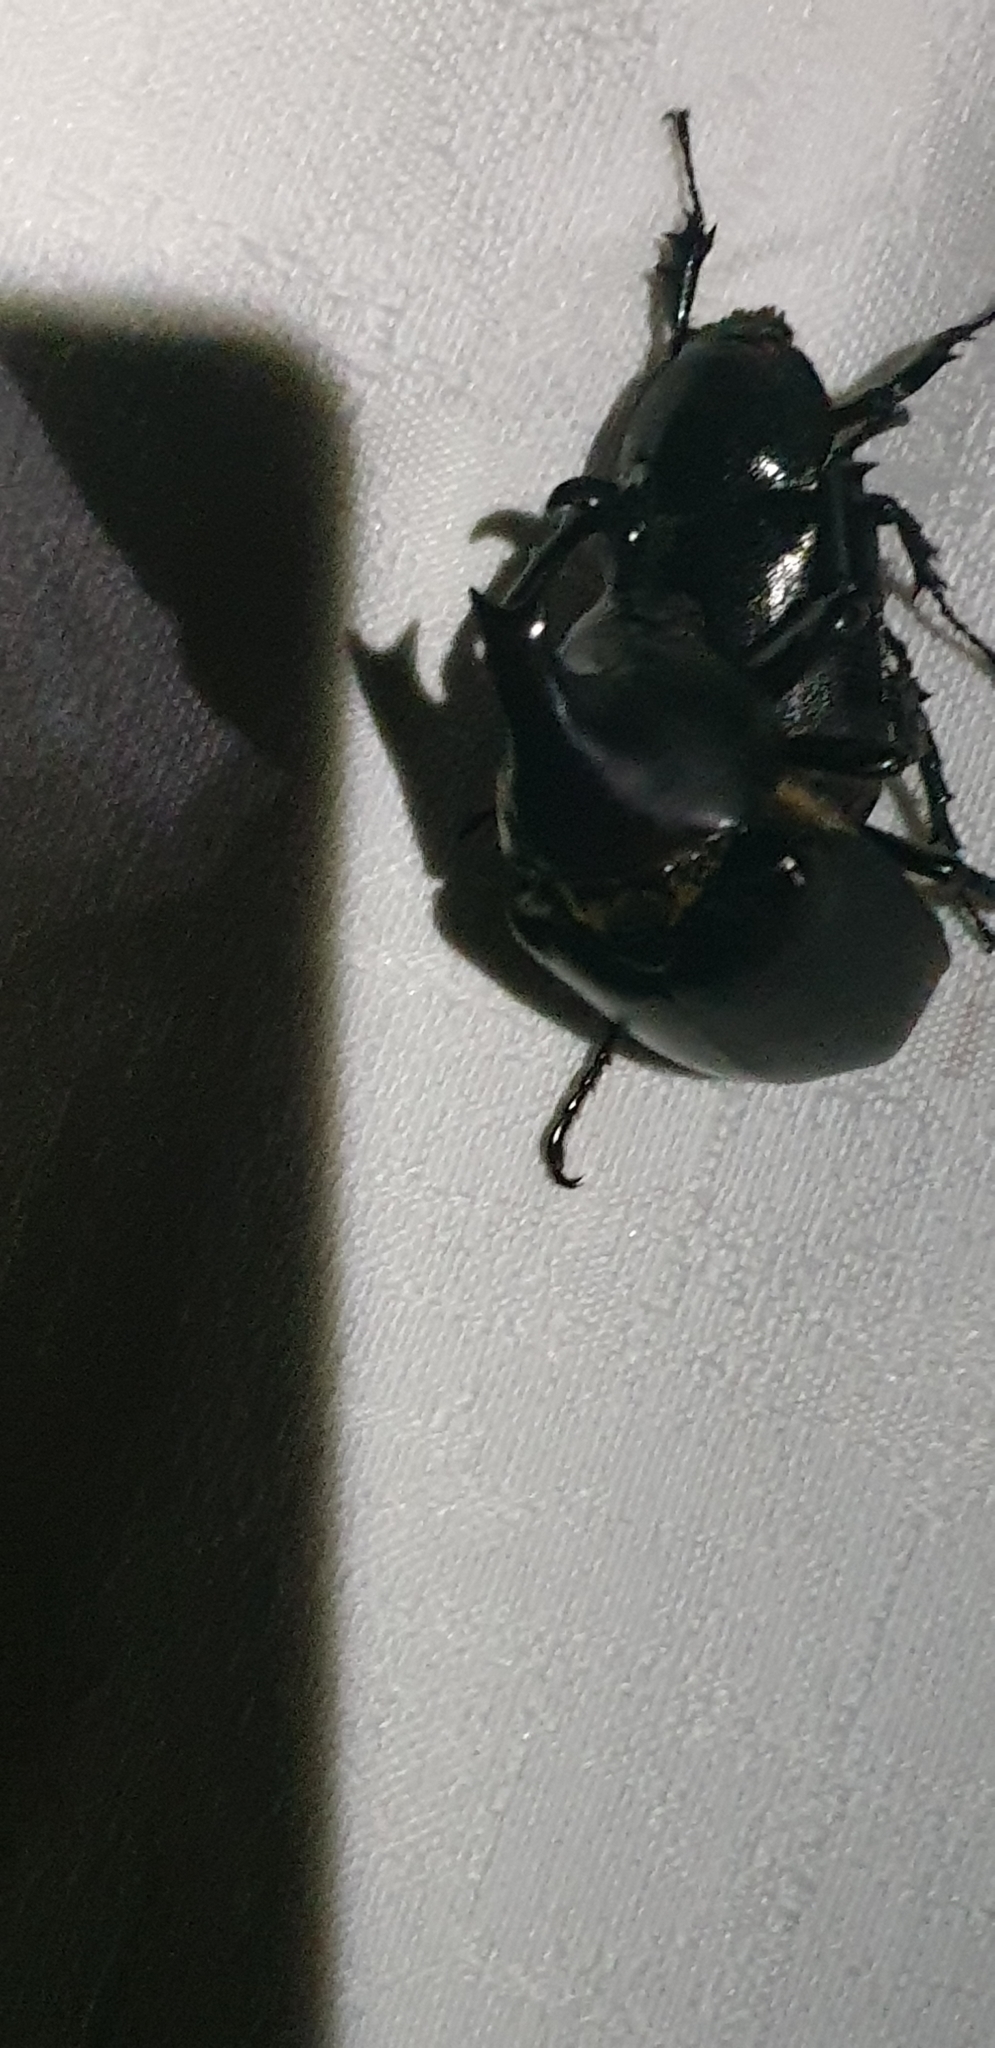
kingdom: Animalia
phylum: Arthropoda
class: Insecta
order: Coleoptera
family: Scarabaeidae
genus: Xylotrupes
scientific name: Xylotrupes australicus
